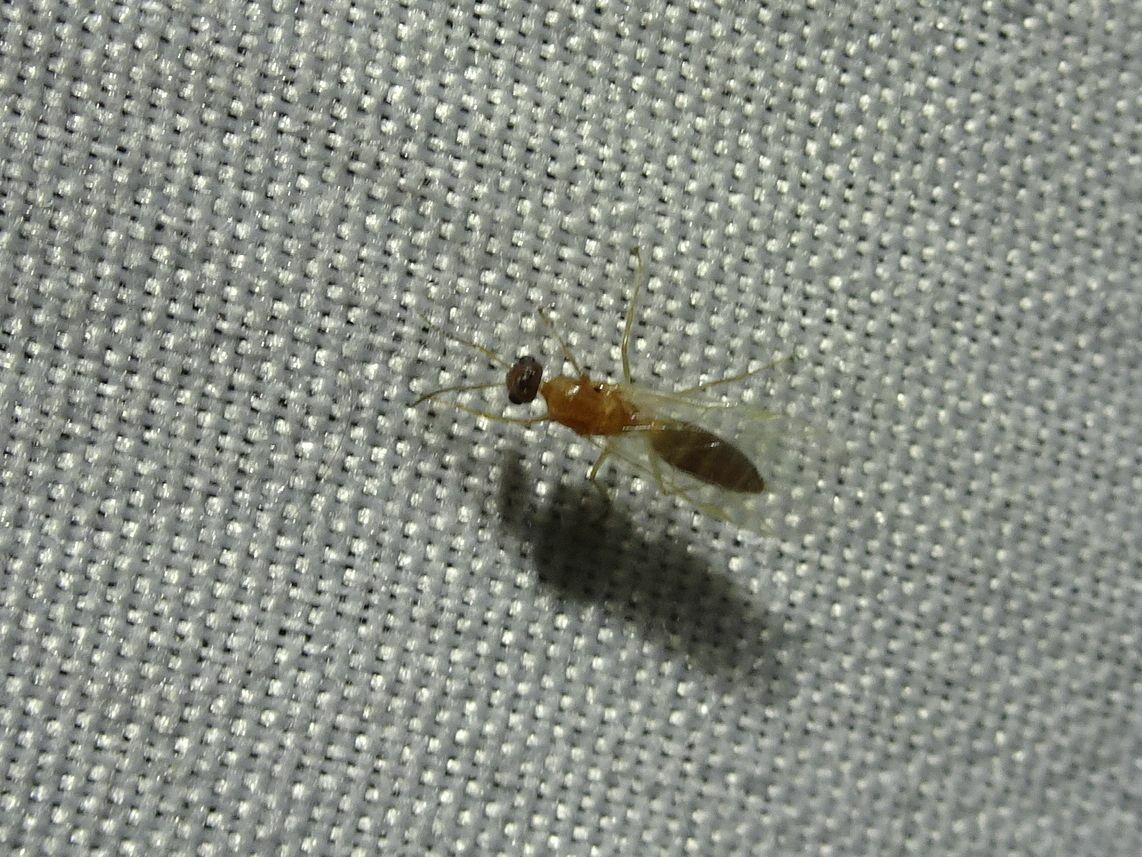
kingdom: Animalia
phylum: Arthropoda
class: Insecta
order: Hymenoptera
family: Formicidae
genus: Camponotus
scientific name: Camponotus truncatus
